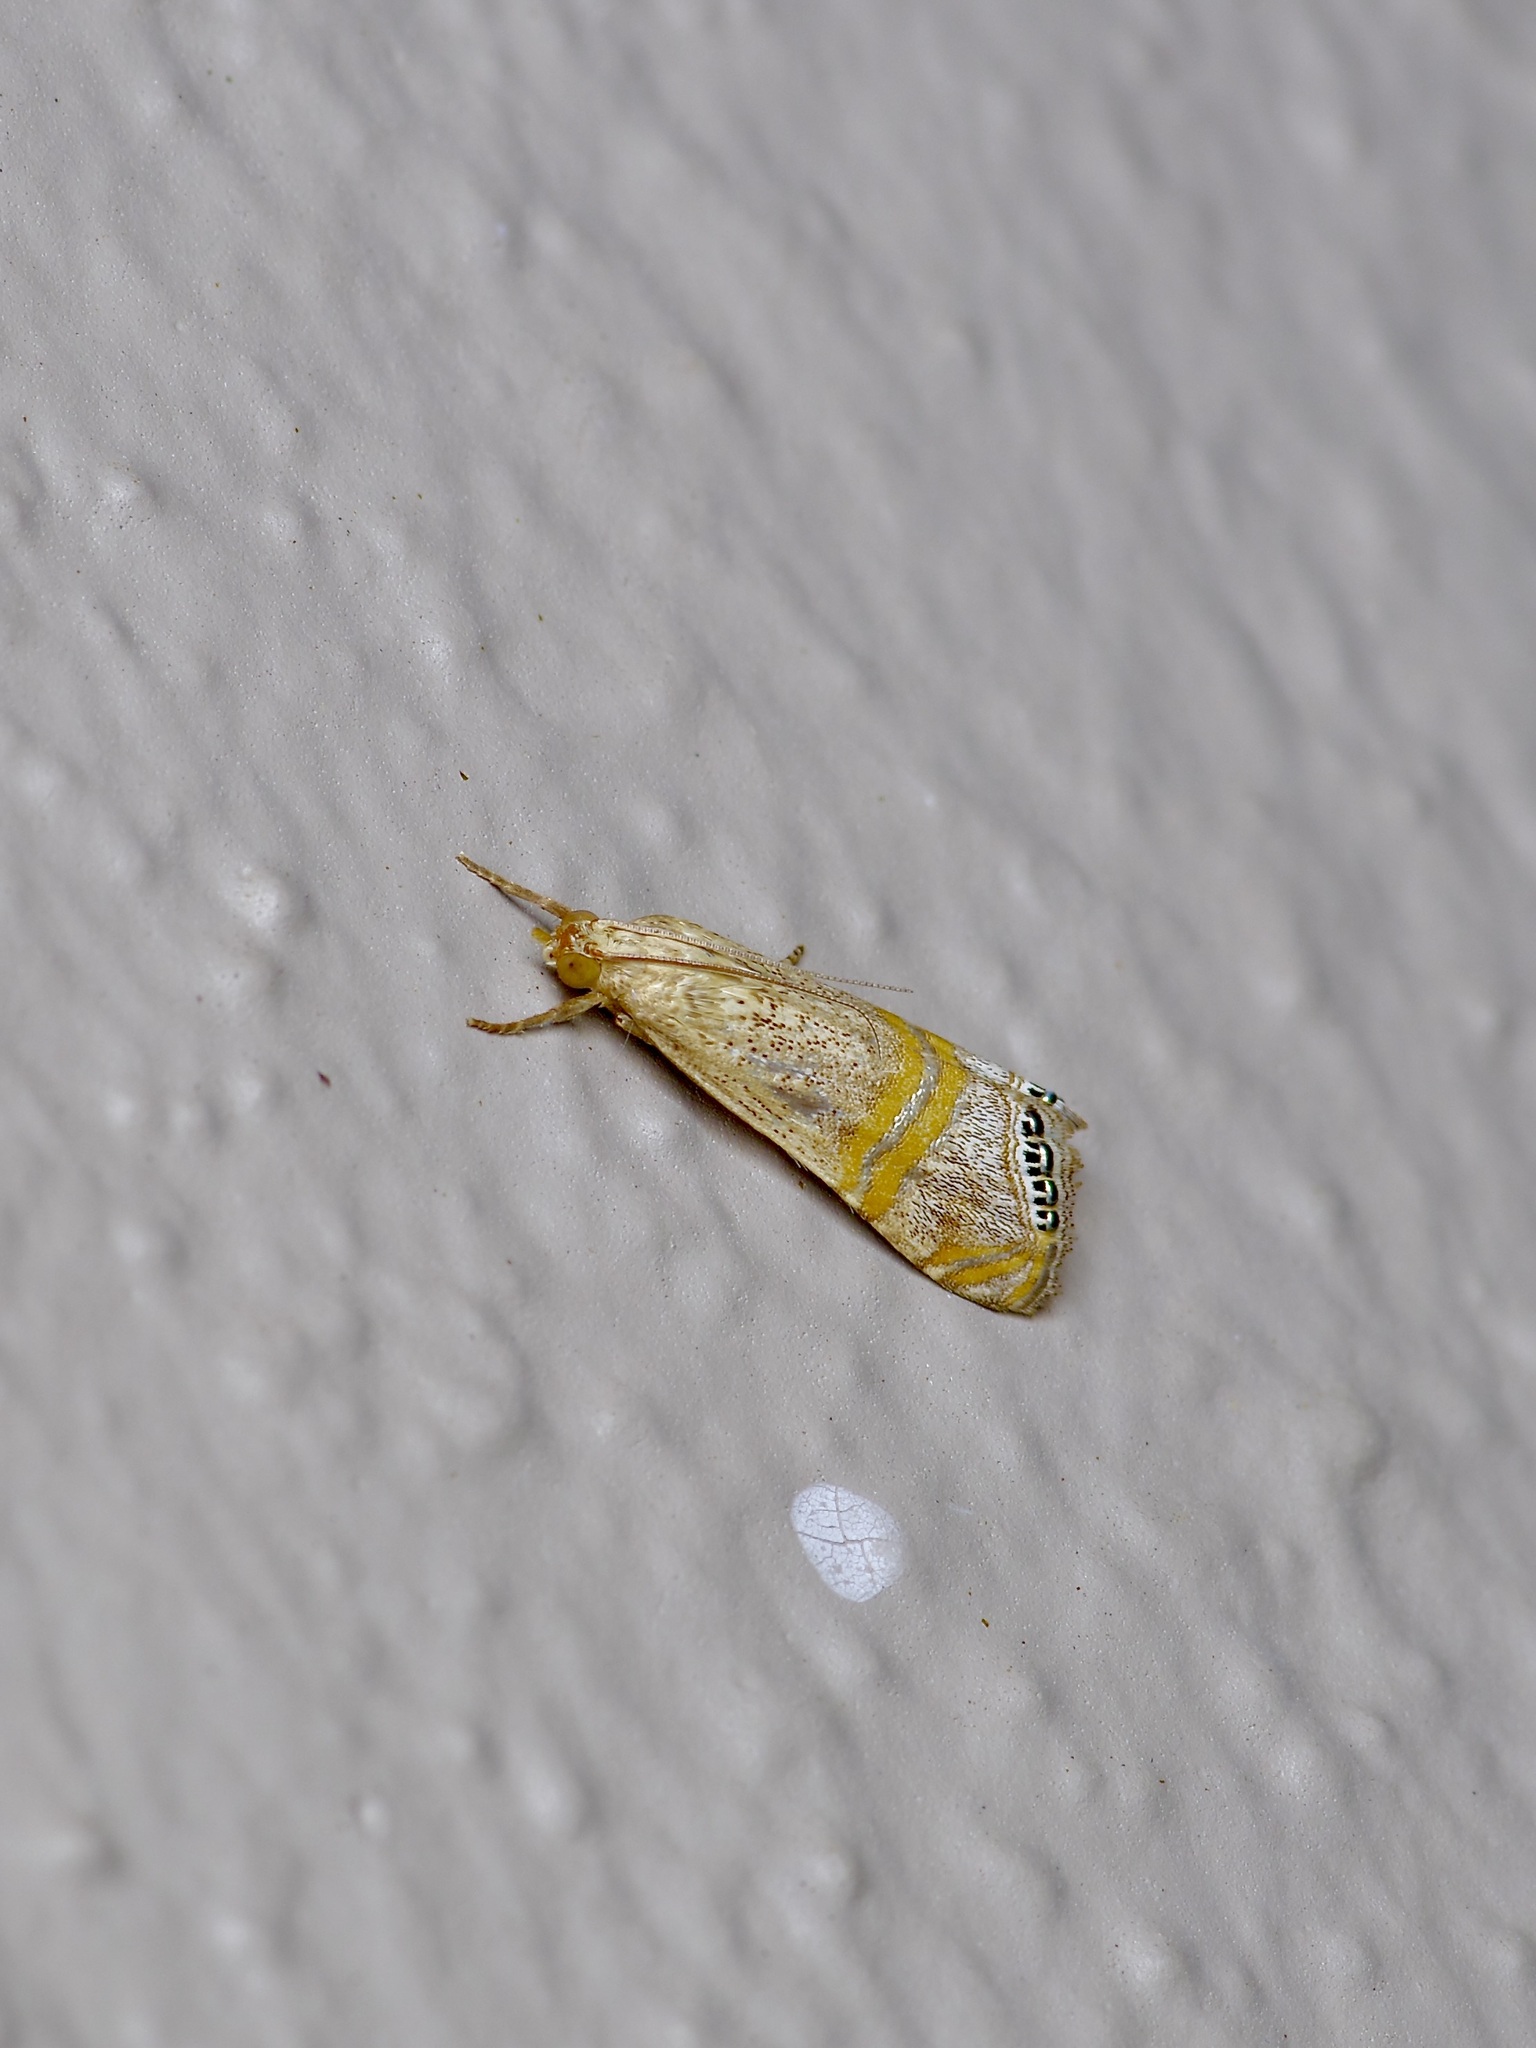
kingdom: Animalia
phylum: Arthropoda
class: Insecta
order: Lepidoptera
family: Crambidae
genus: Euchromius
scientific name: Euchromius ocellea
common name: Necklace veneer moth
